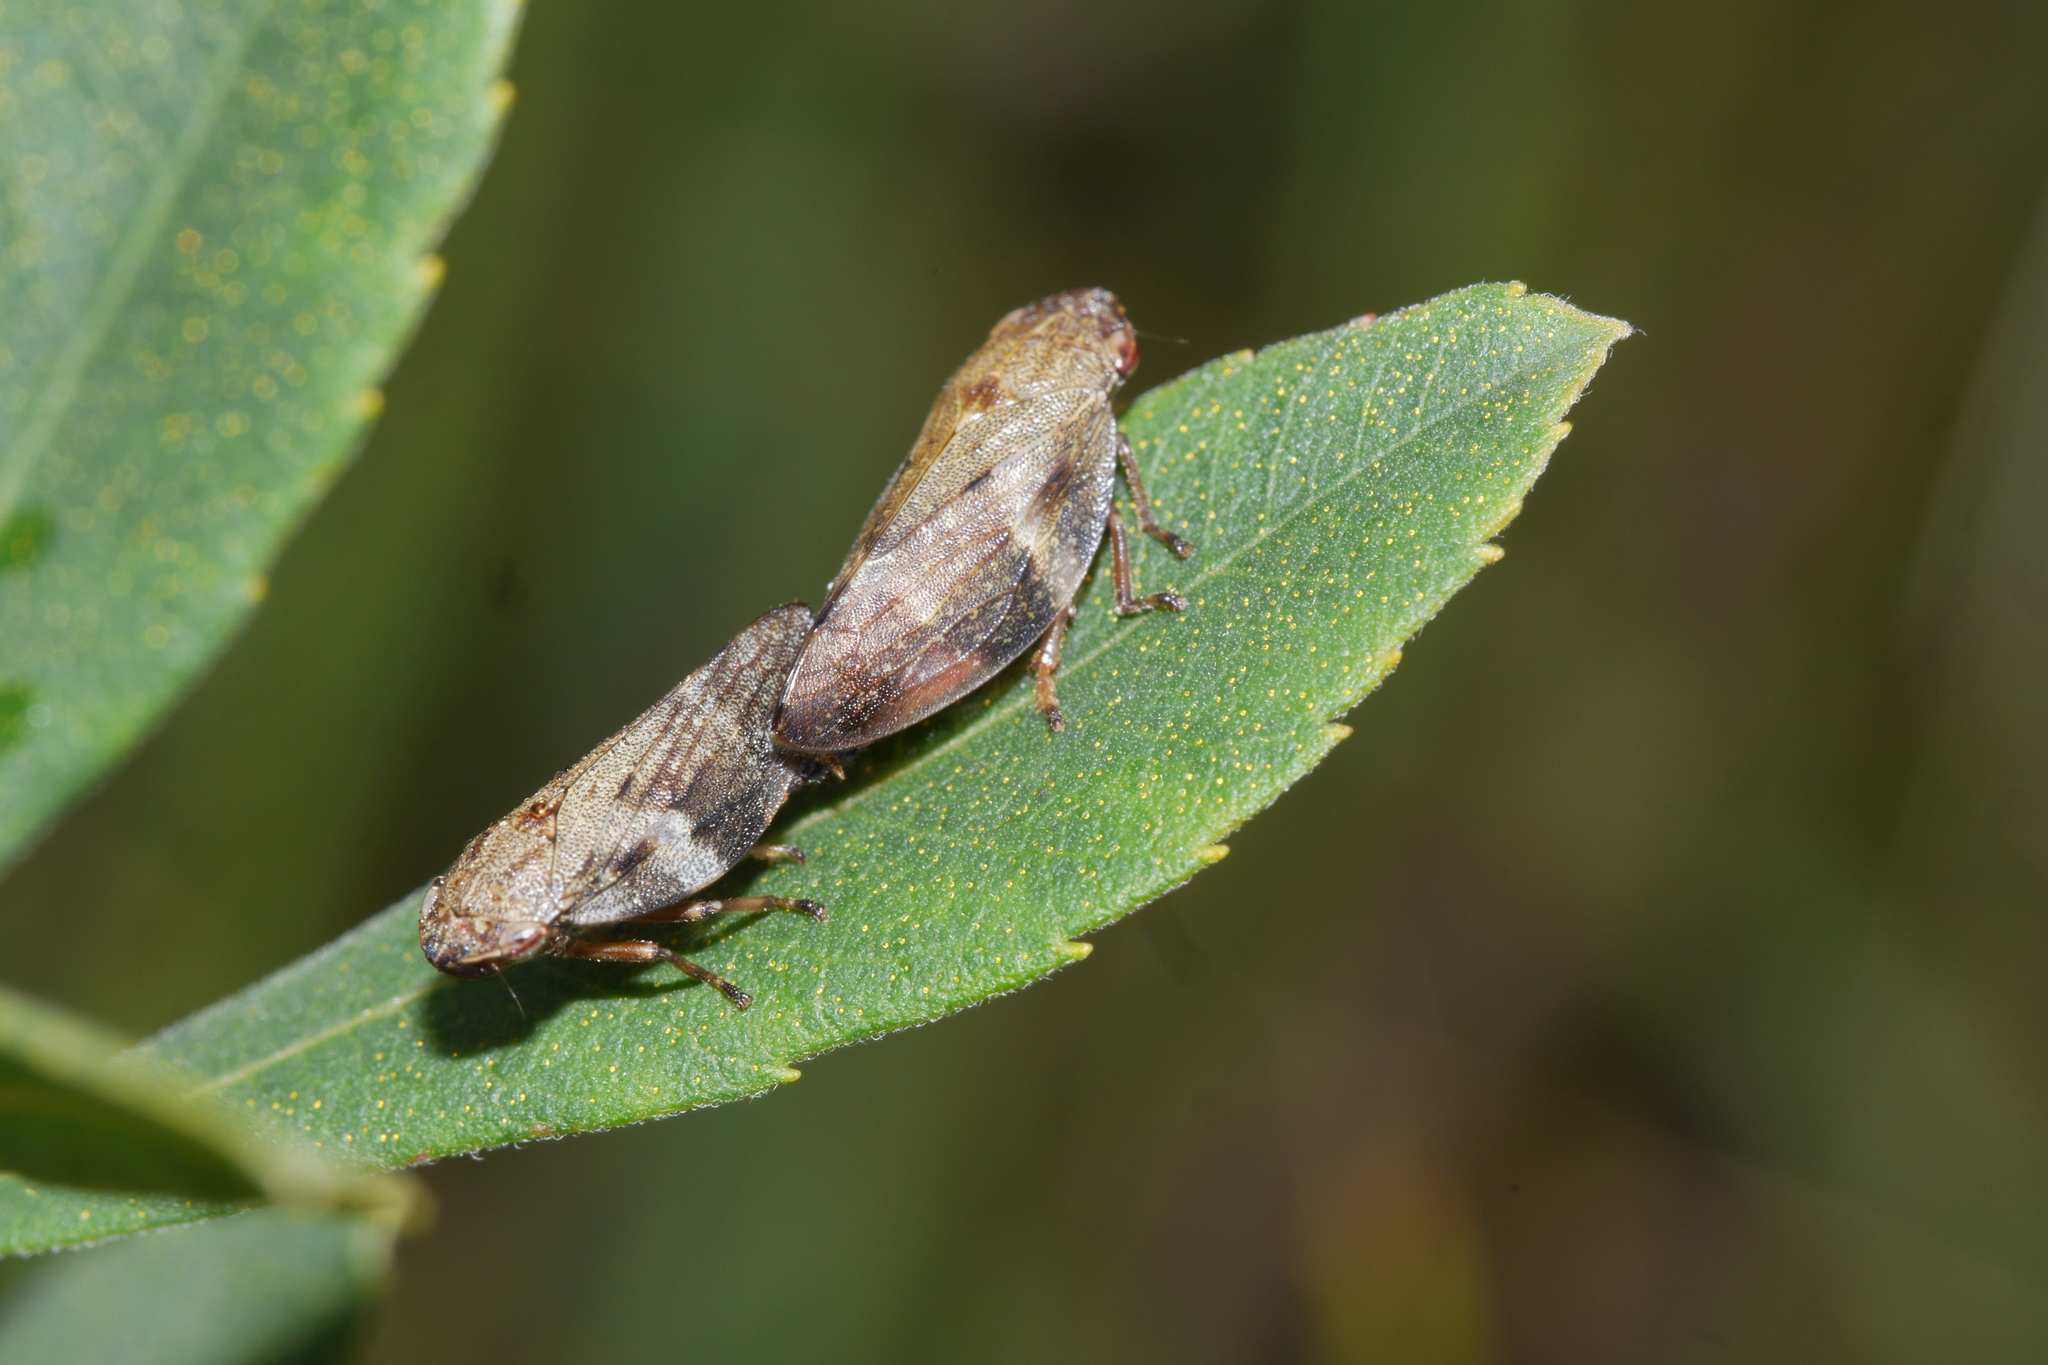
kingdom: Animalia
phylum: Arthropoda
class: Insecta
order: Hemiptera
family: Aphrophoridae
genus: Aphrophora
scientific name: Aphrophora alni
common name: European alder spittlebug
